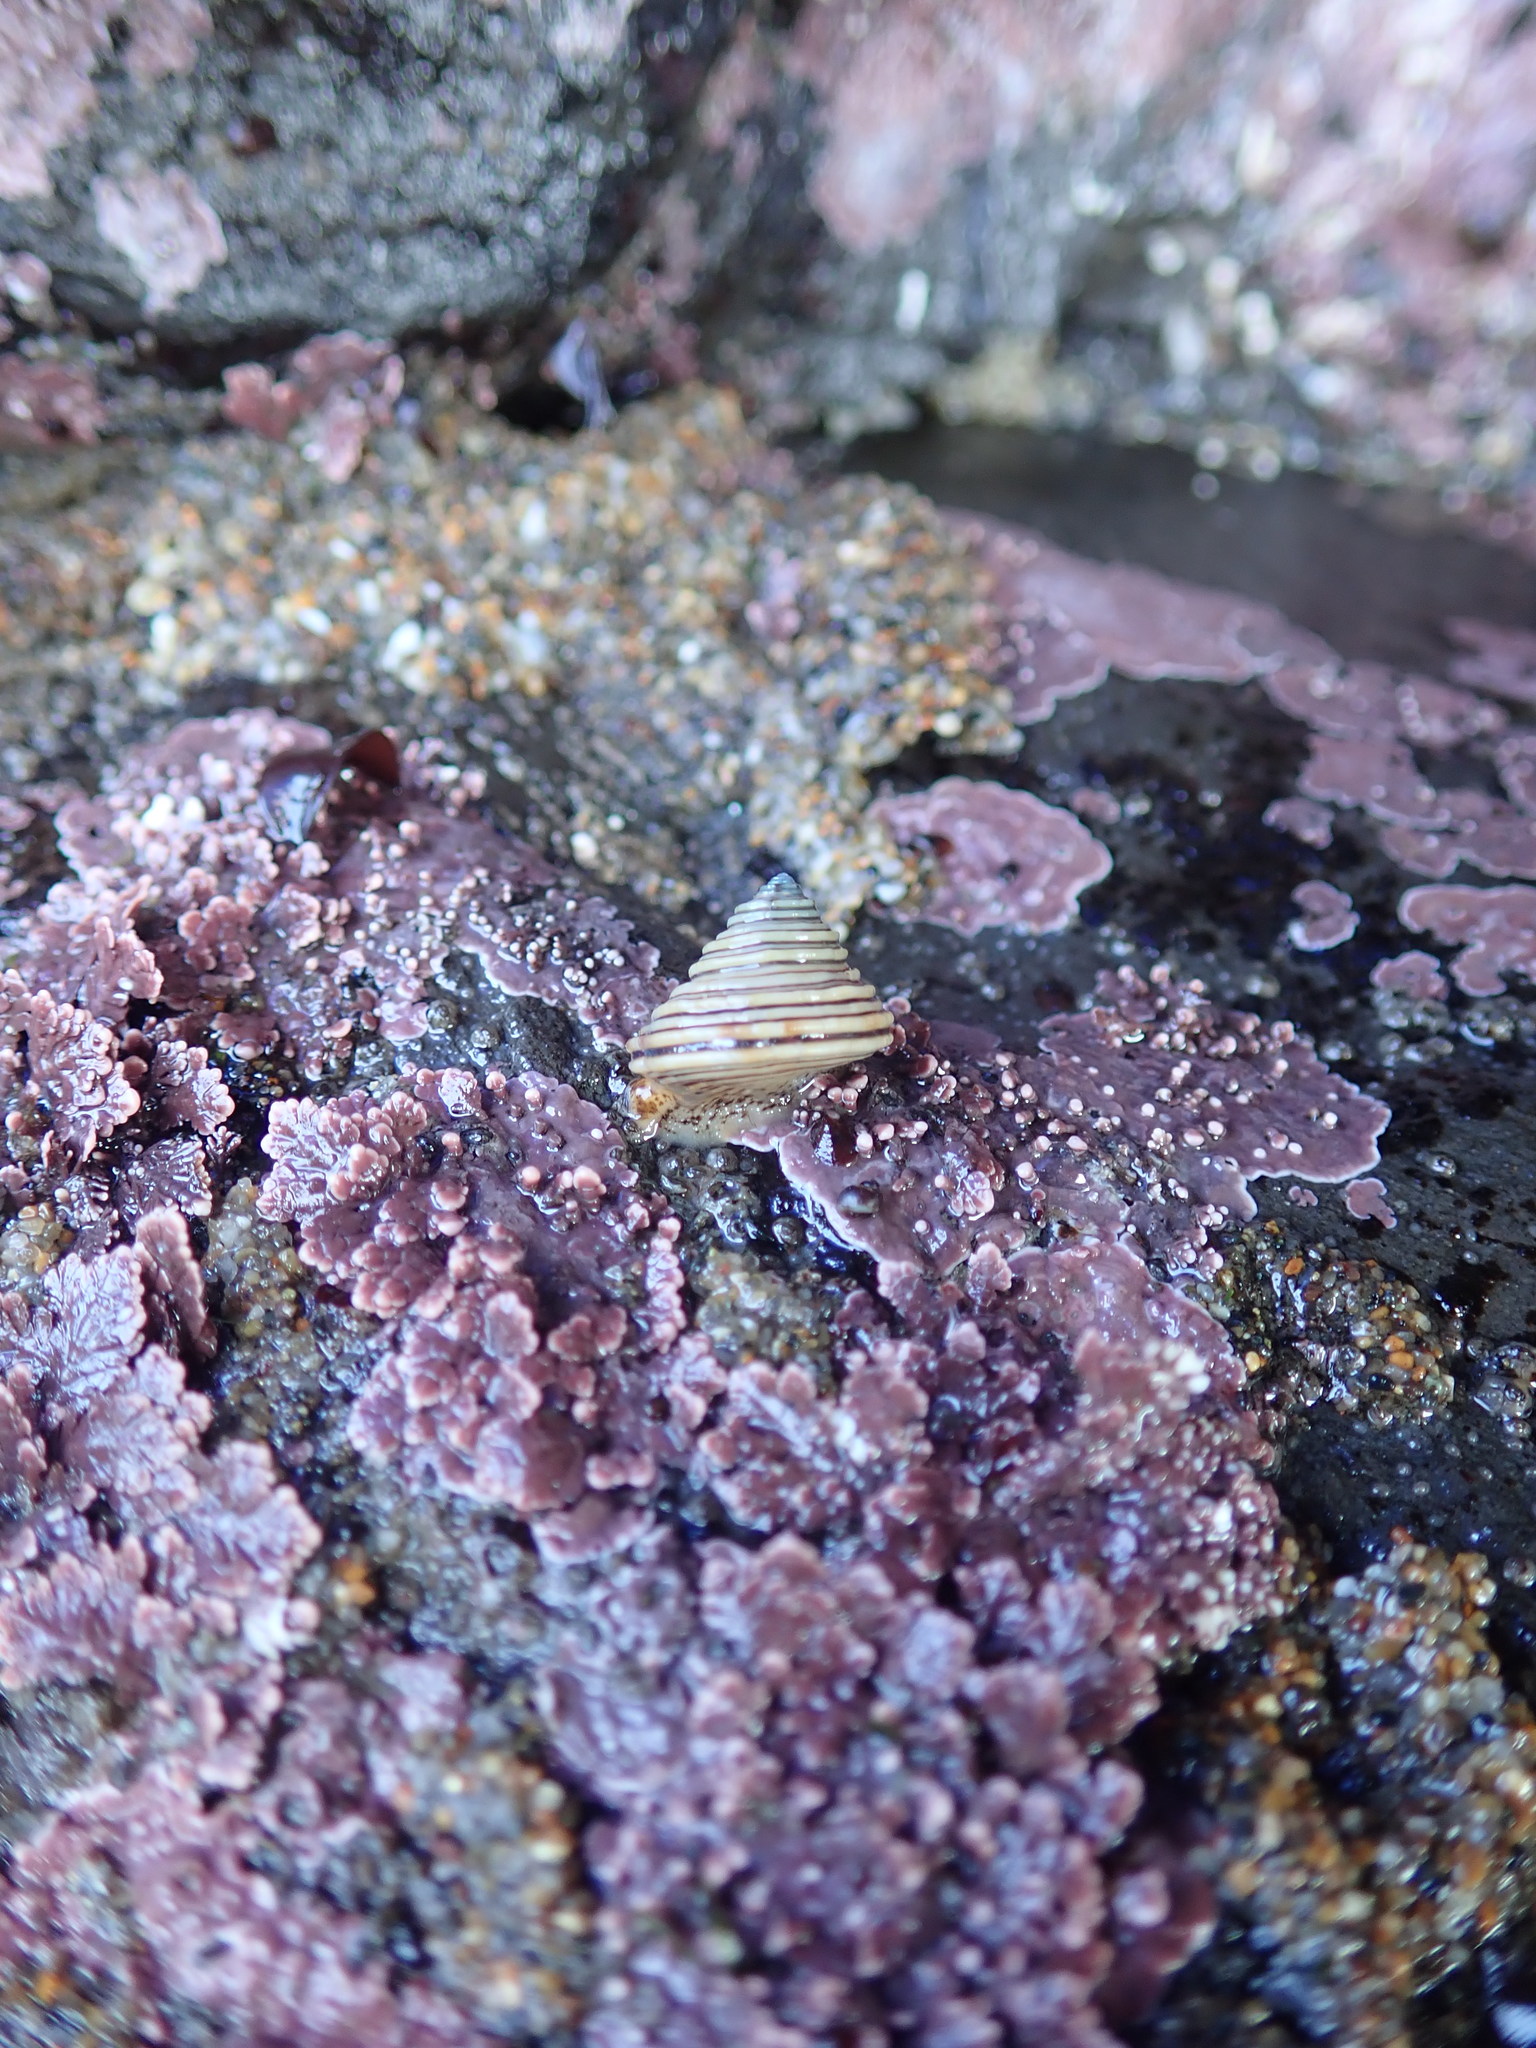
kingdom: Animalia
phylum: Mollusca
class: Gastropoda
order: Trochida
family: Calliostomatidae
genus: Calliostoma
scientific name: Calliostoma canaliculatum
